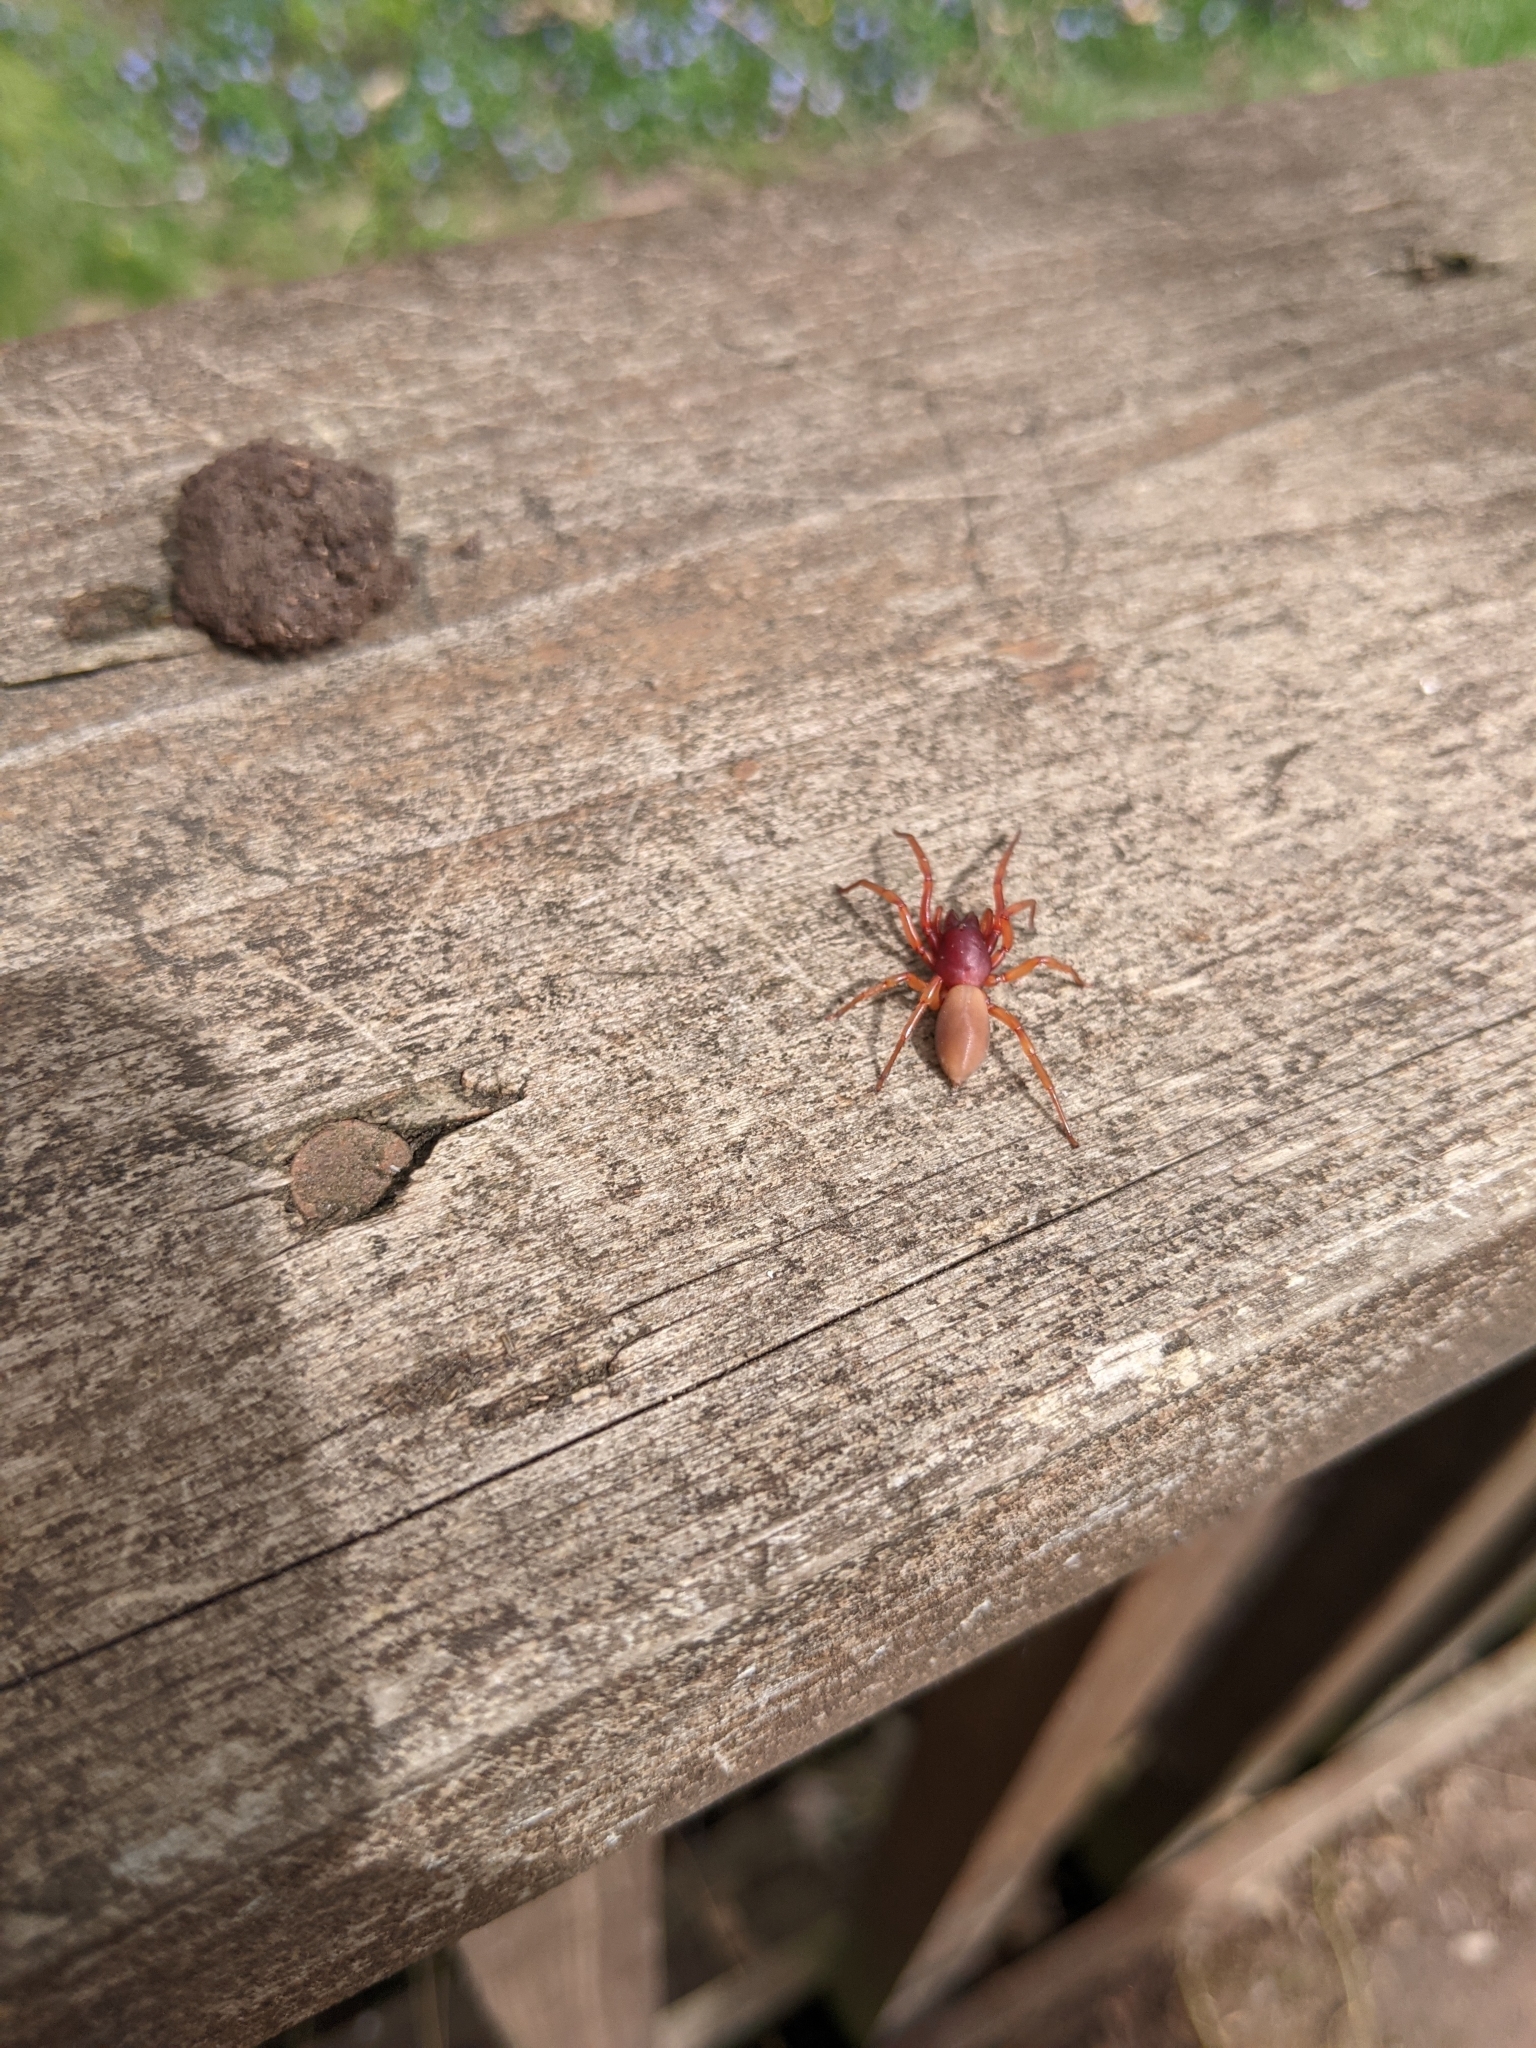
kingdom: Animalia
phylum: Arthropoda
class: Arachnida
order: Araneae
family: Dysderidae
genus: Dysdera
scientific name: Dysdera crocata
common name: Woodlouse spider
